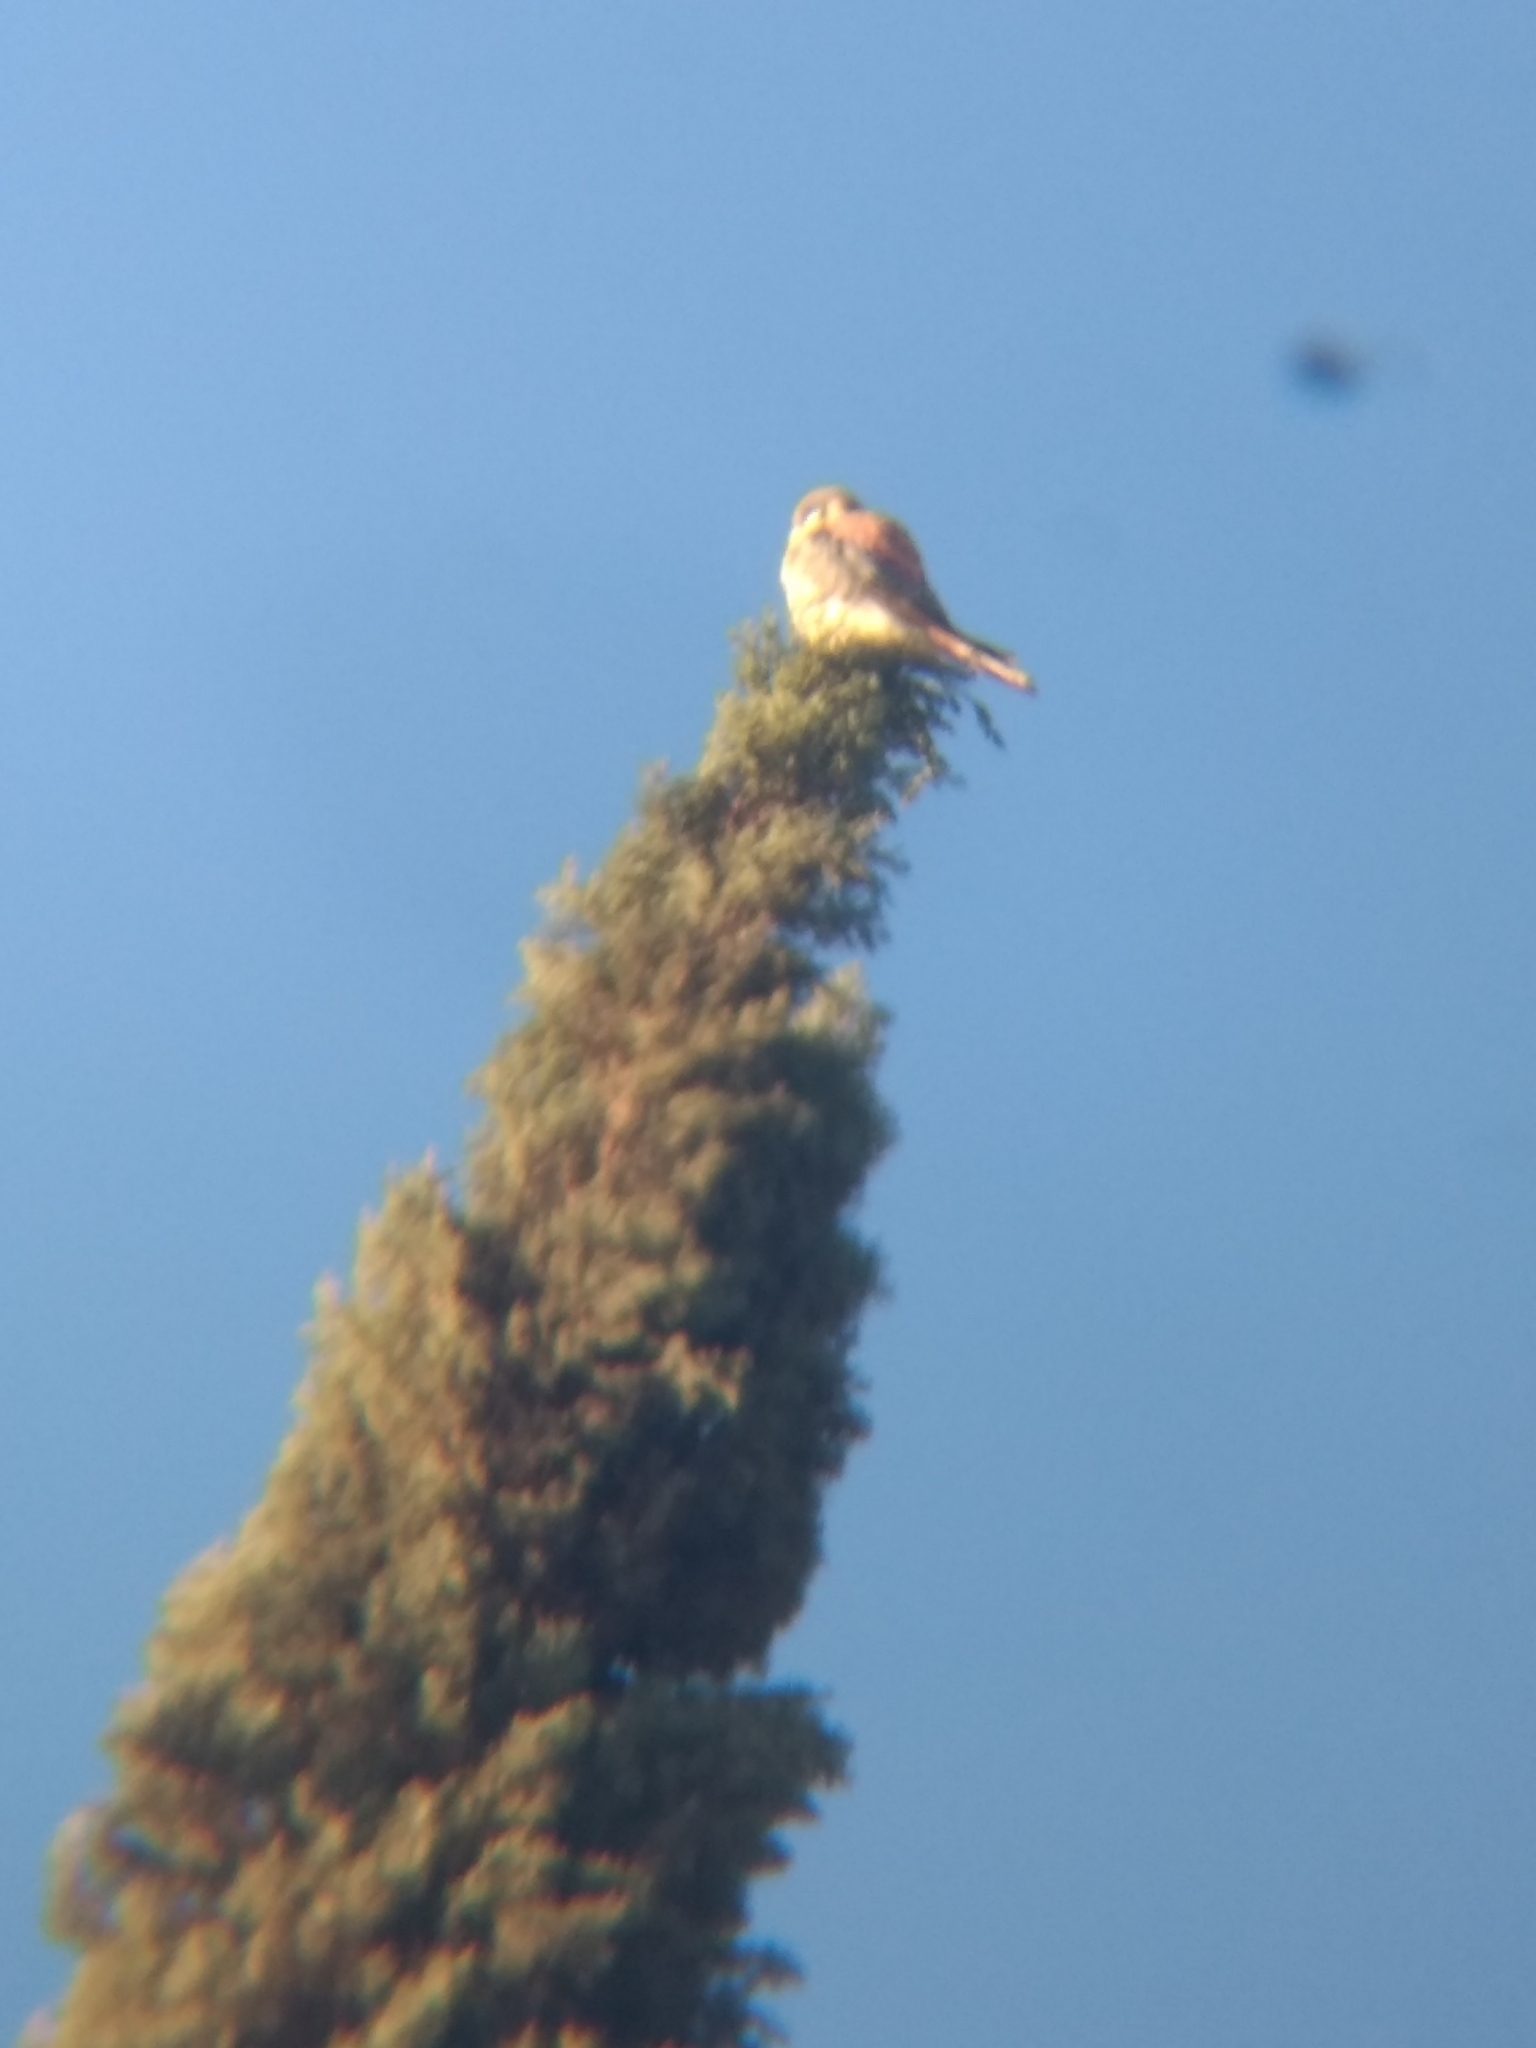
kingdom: Animalia
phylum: Chordata
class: Aves
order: Falconiformes
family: Falconidae
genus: Falco
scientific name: Falco sparverius
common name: American kestrel
